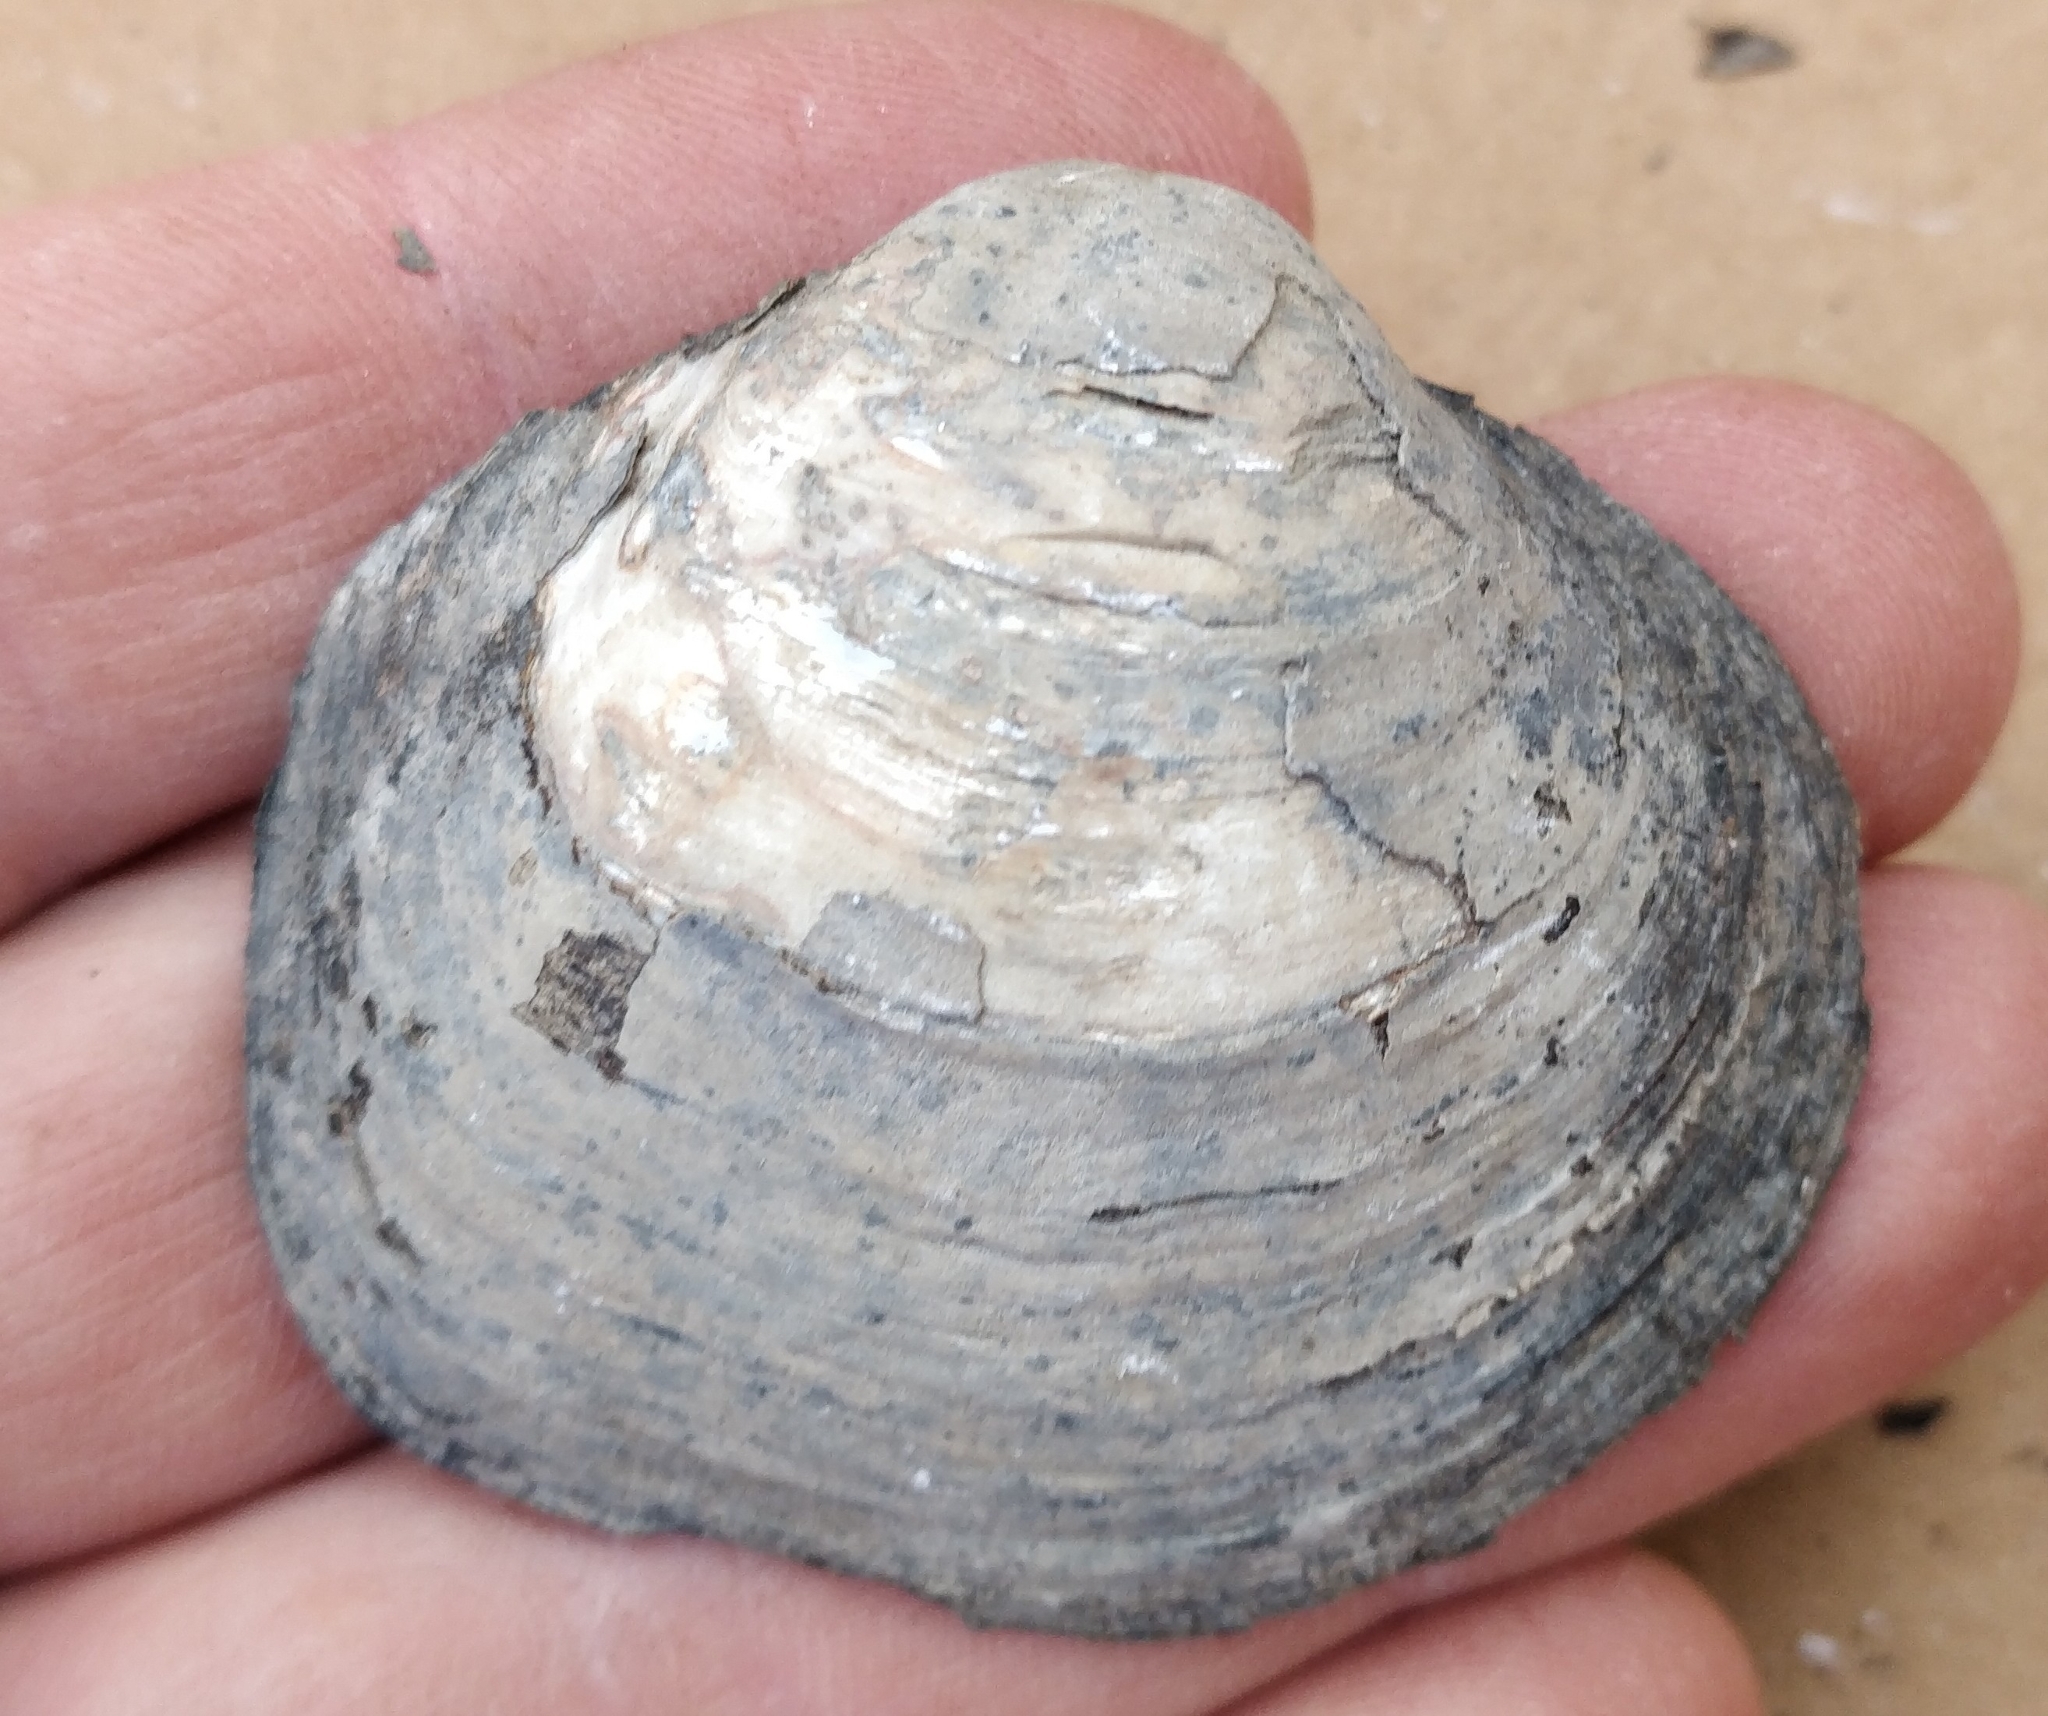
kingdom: Animalia
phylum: Mollusca
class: Bivalvia
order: Unionida
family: Unionidae
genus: Cyclonaias
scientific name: Cyclonaias pustulosa
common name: Pimpleback
